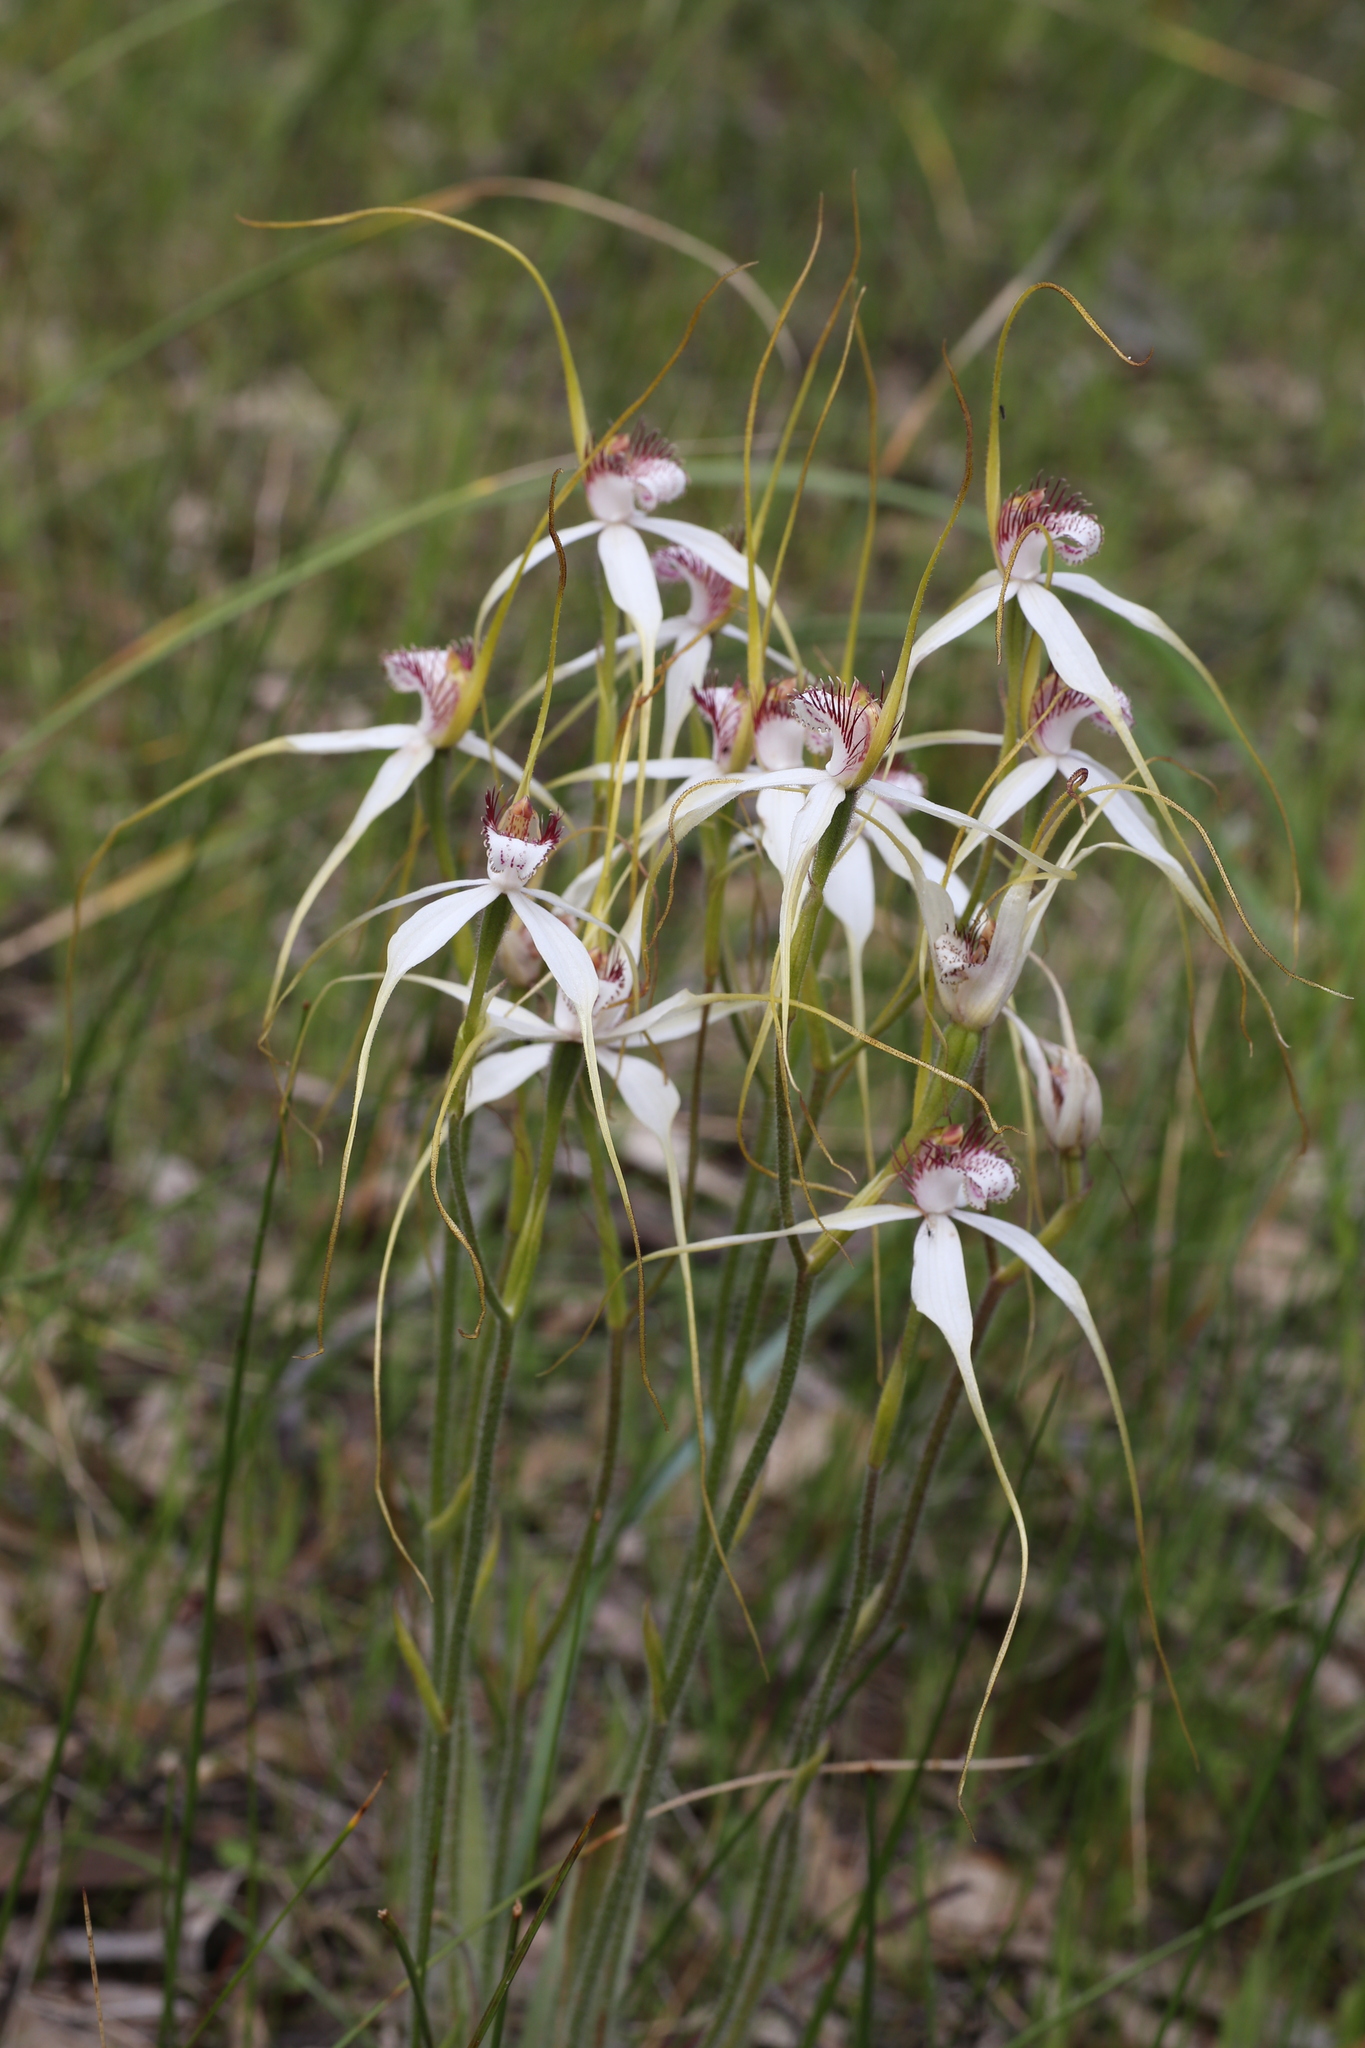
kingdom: Plantae
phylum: Tracheophyta
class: Liliopsida
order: Asparagales
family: Orchidaceae
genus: Caladenia
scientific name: Caladenia longicauda
